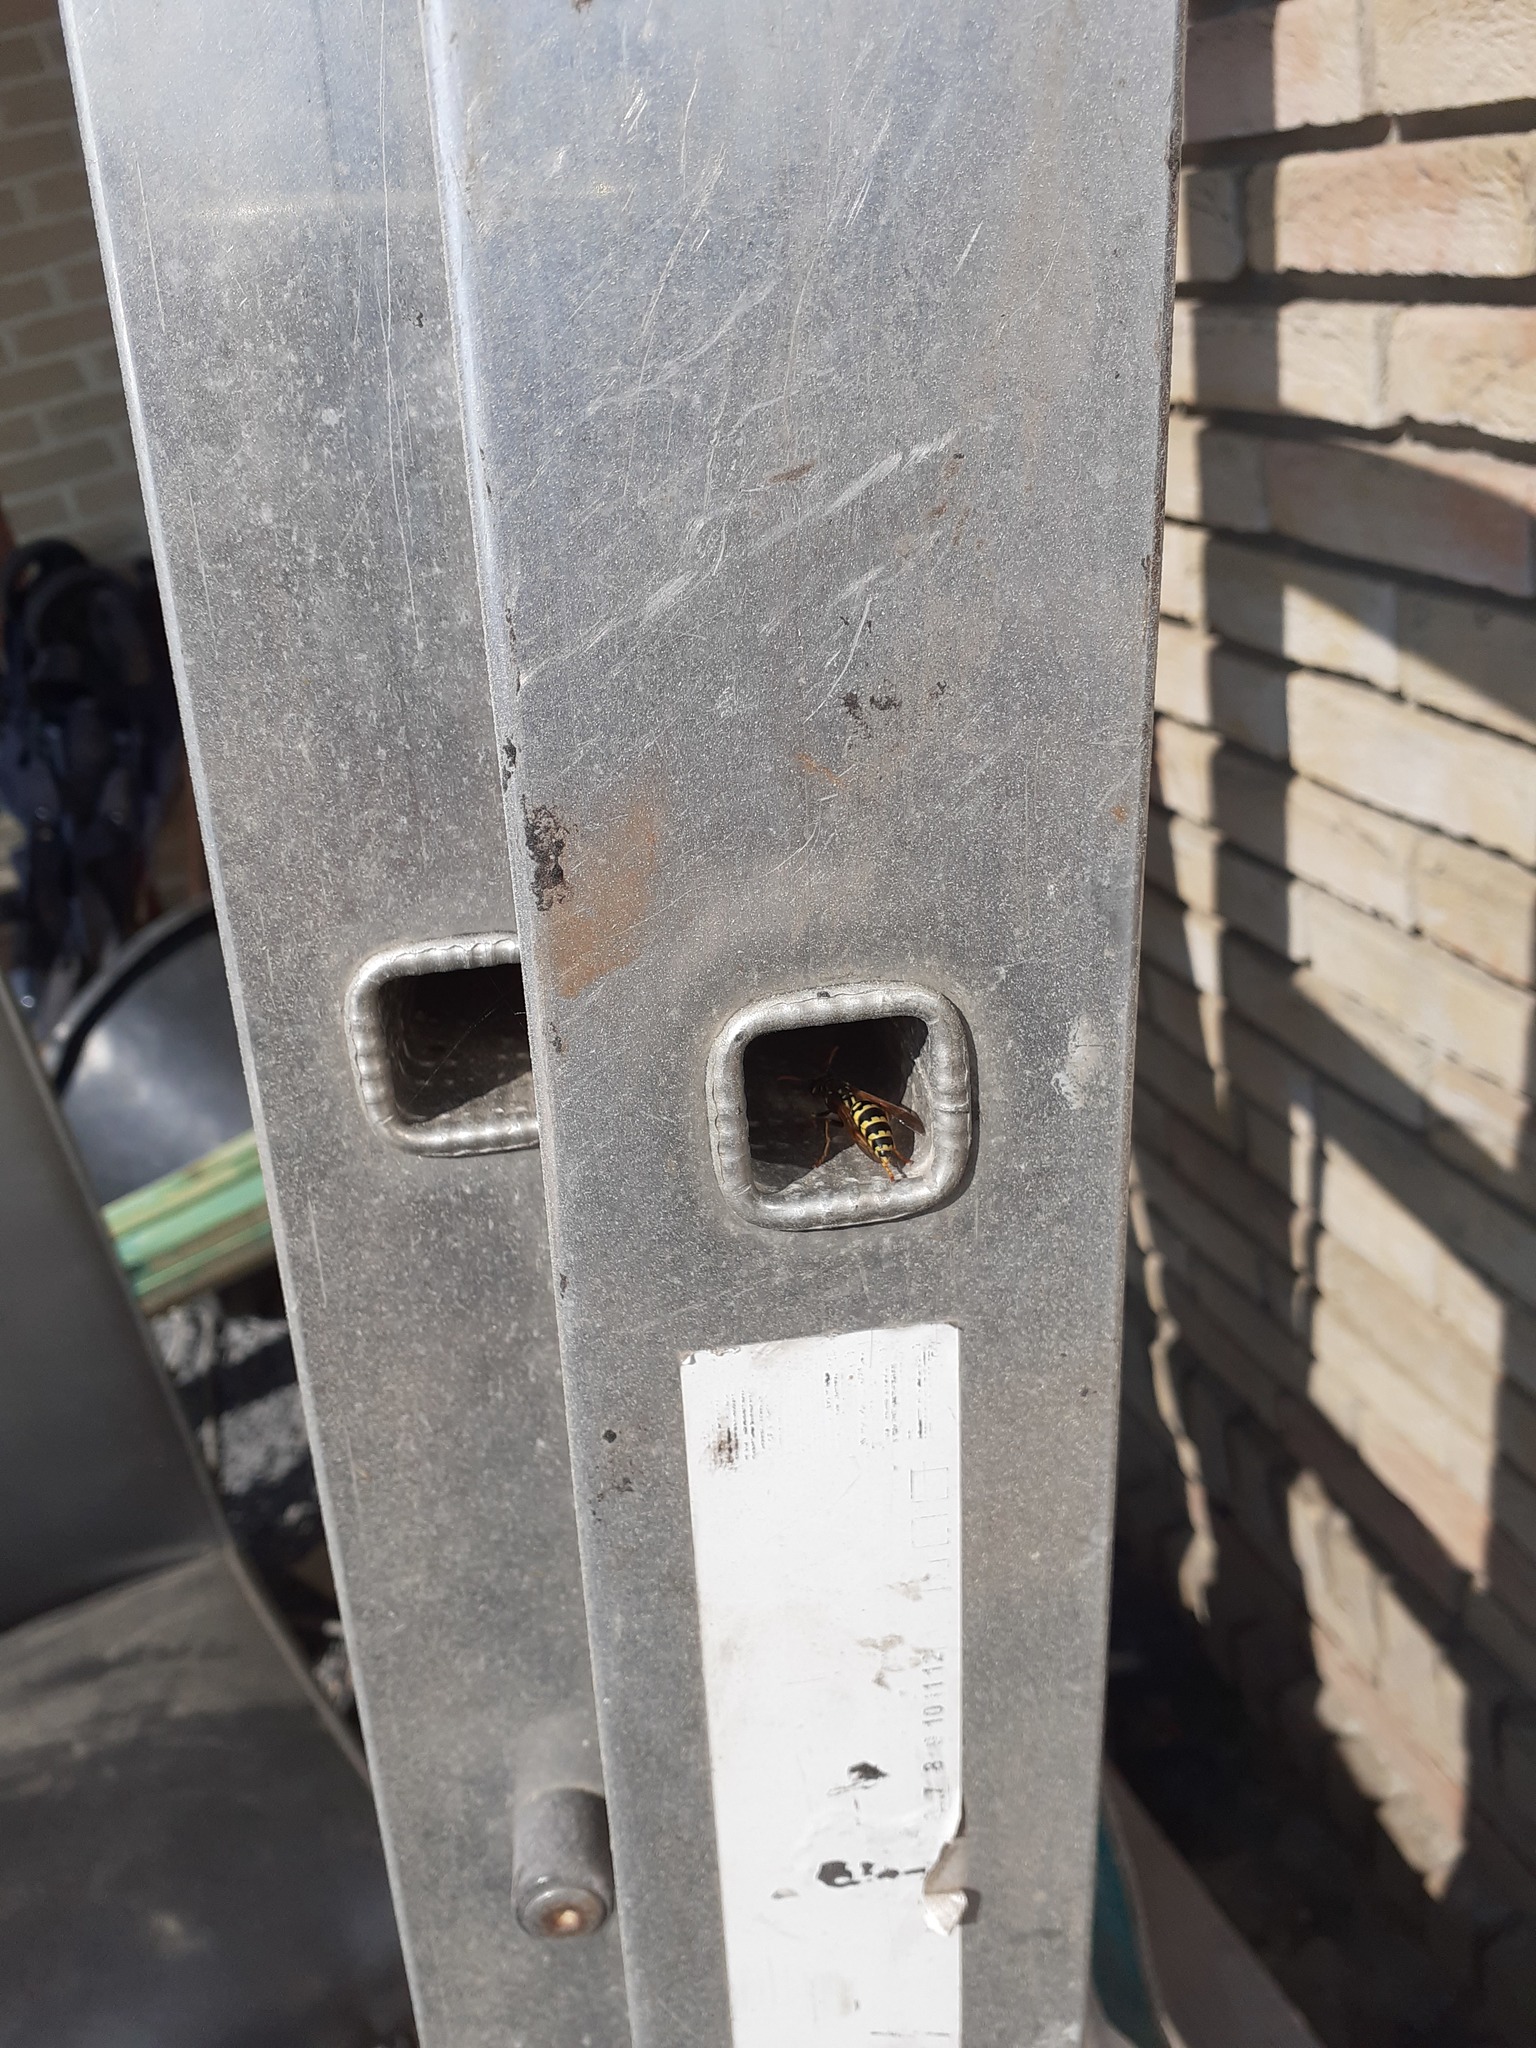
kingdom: Animalia
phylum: Arthropoda
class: Insecta
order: Hymenoptera
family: Eumenidae
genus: Polistes
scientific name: Polistes dominula
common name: Paper wasp
